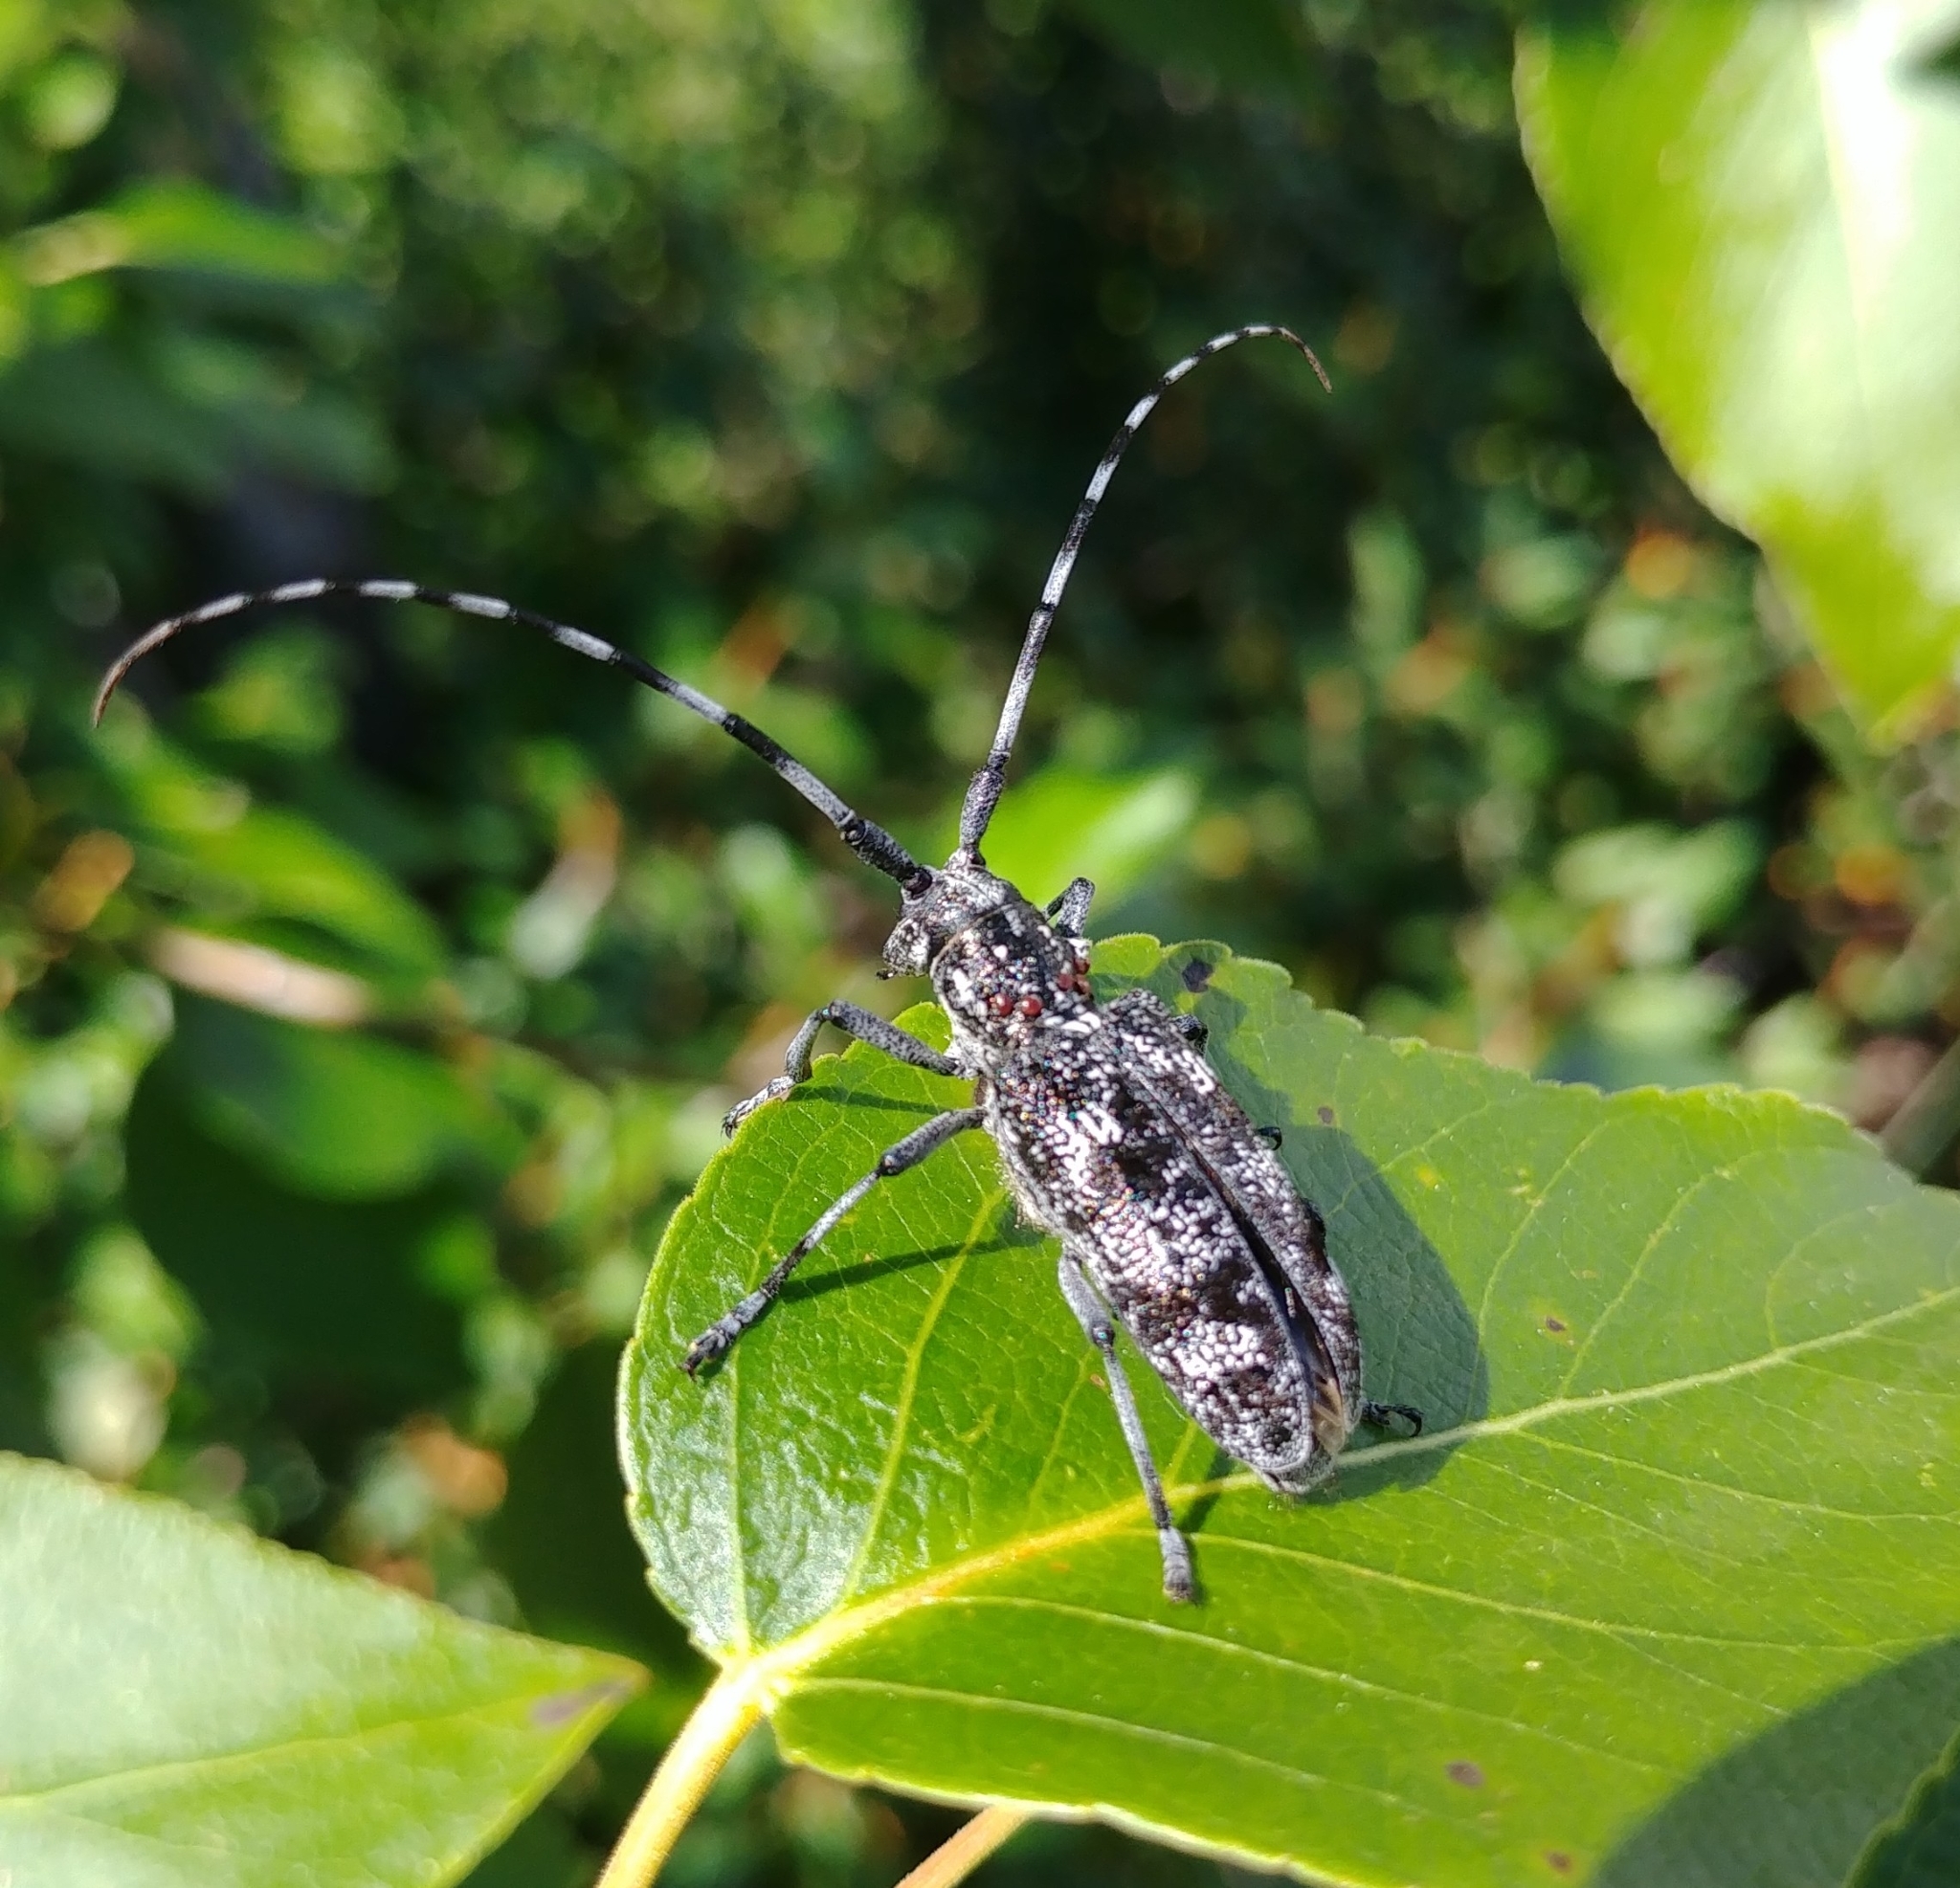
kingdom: Animalia
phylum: Arthropoda
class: Insecta
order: Coleoptera
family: Cerambycidae
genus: Monochamus
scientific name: Monochamus clamator
